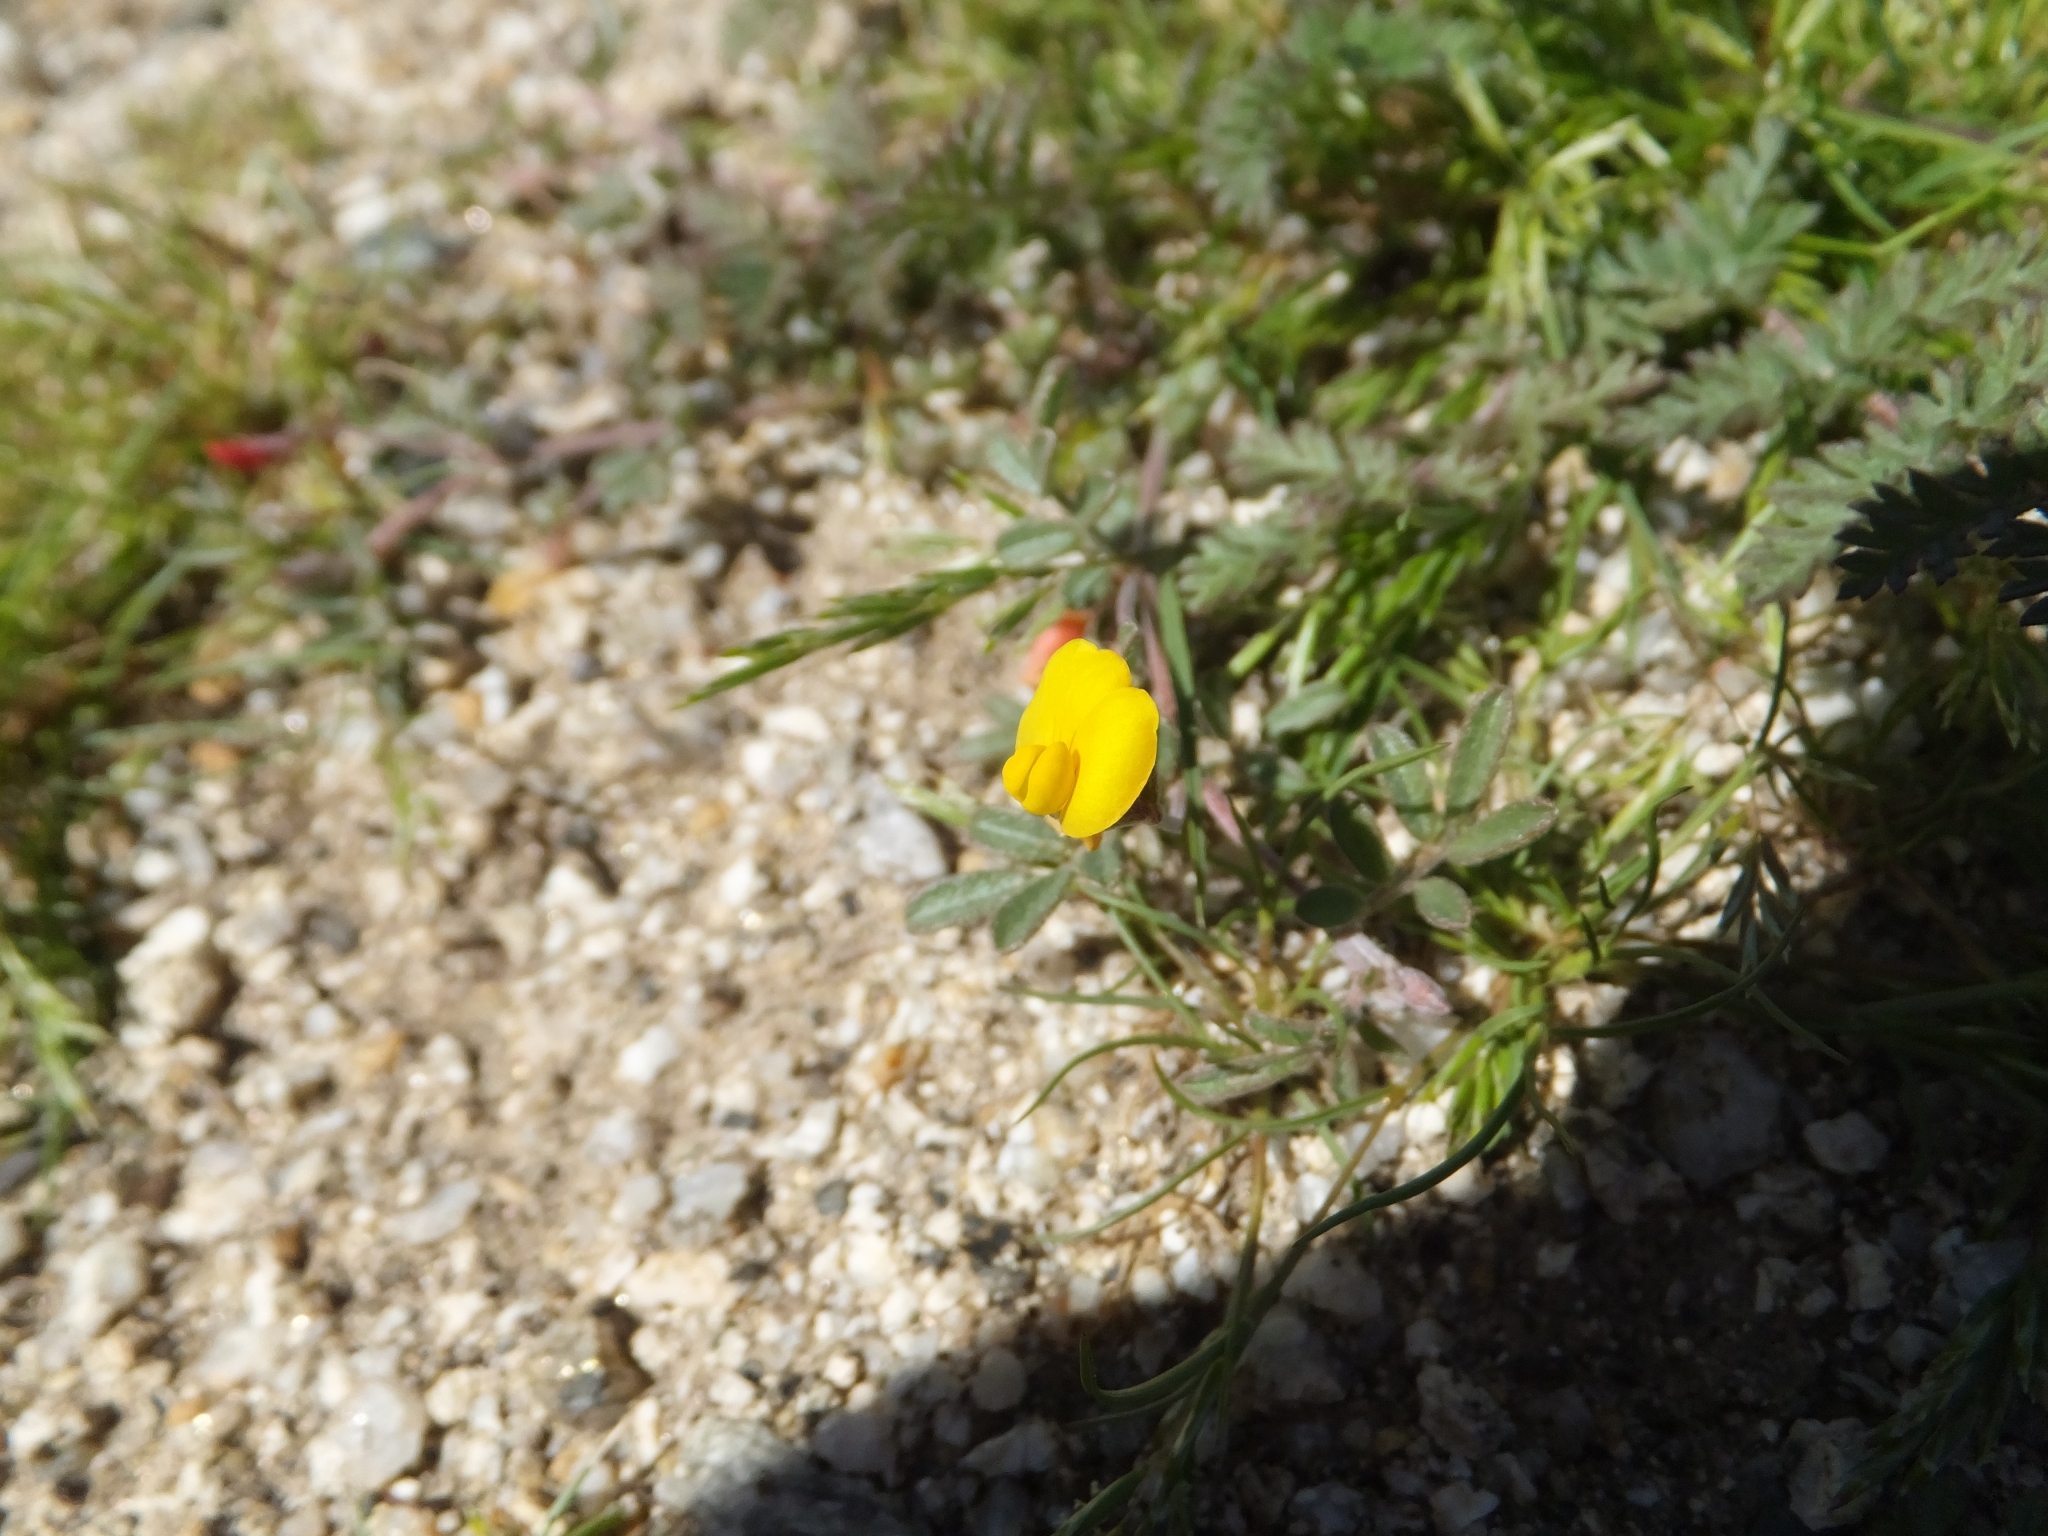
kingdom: Plantae
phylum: Tracheophyta
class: Magnoliopsida
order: Fabales
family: Fabaceae
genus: Acmispon
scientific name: Acmispon strigosus
